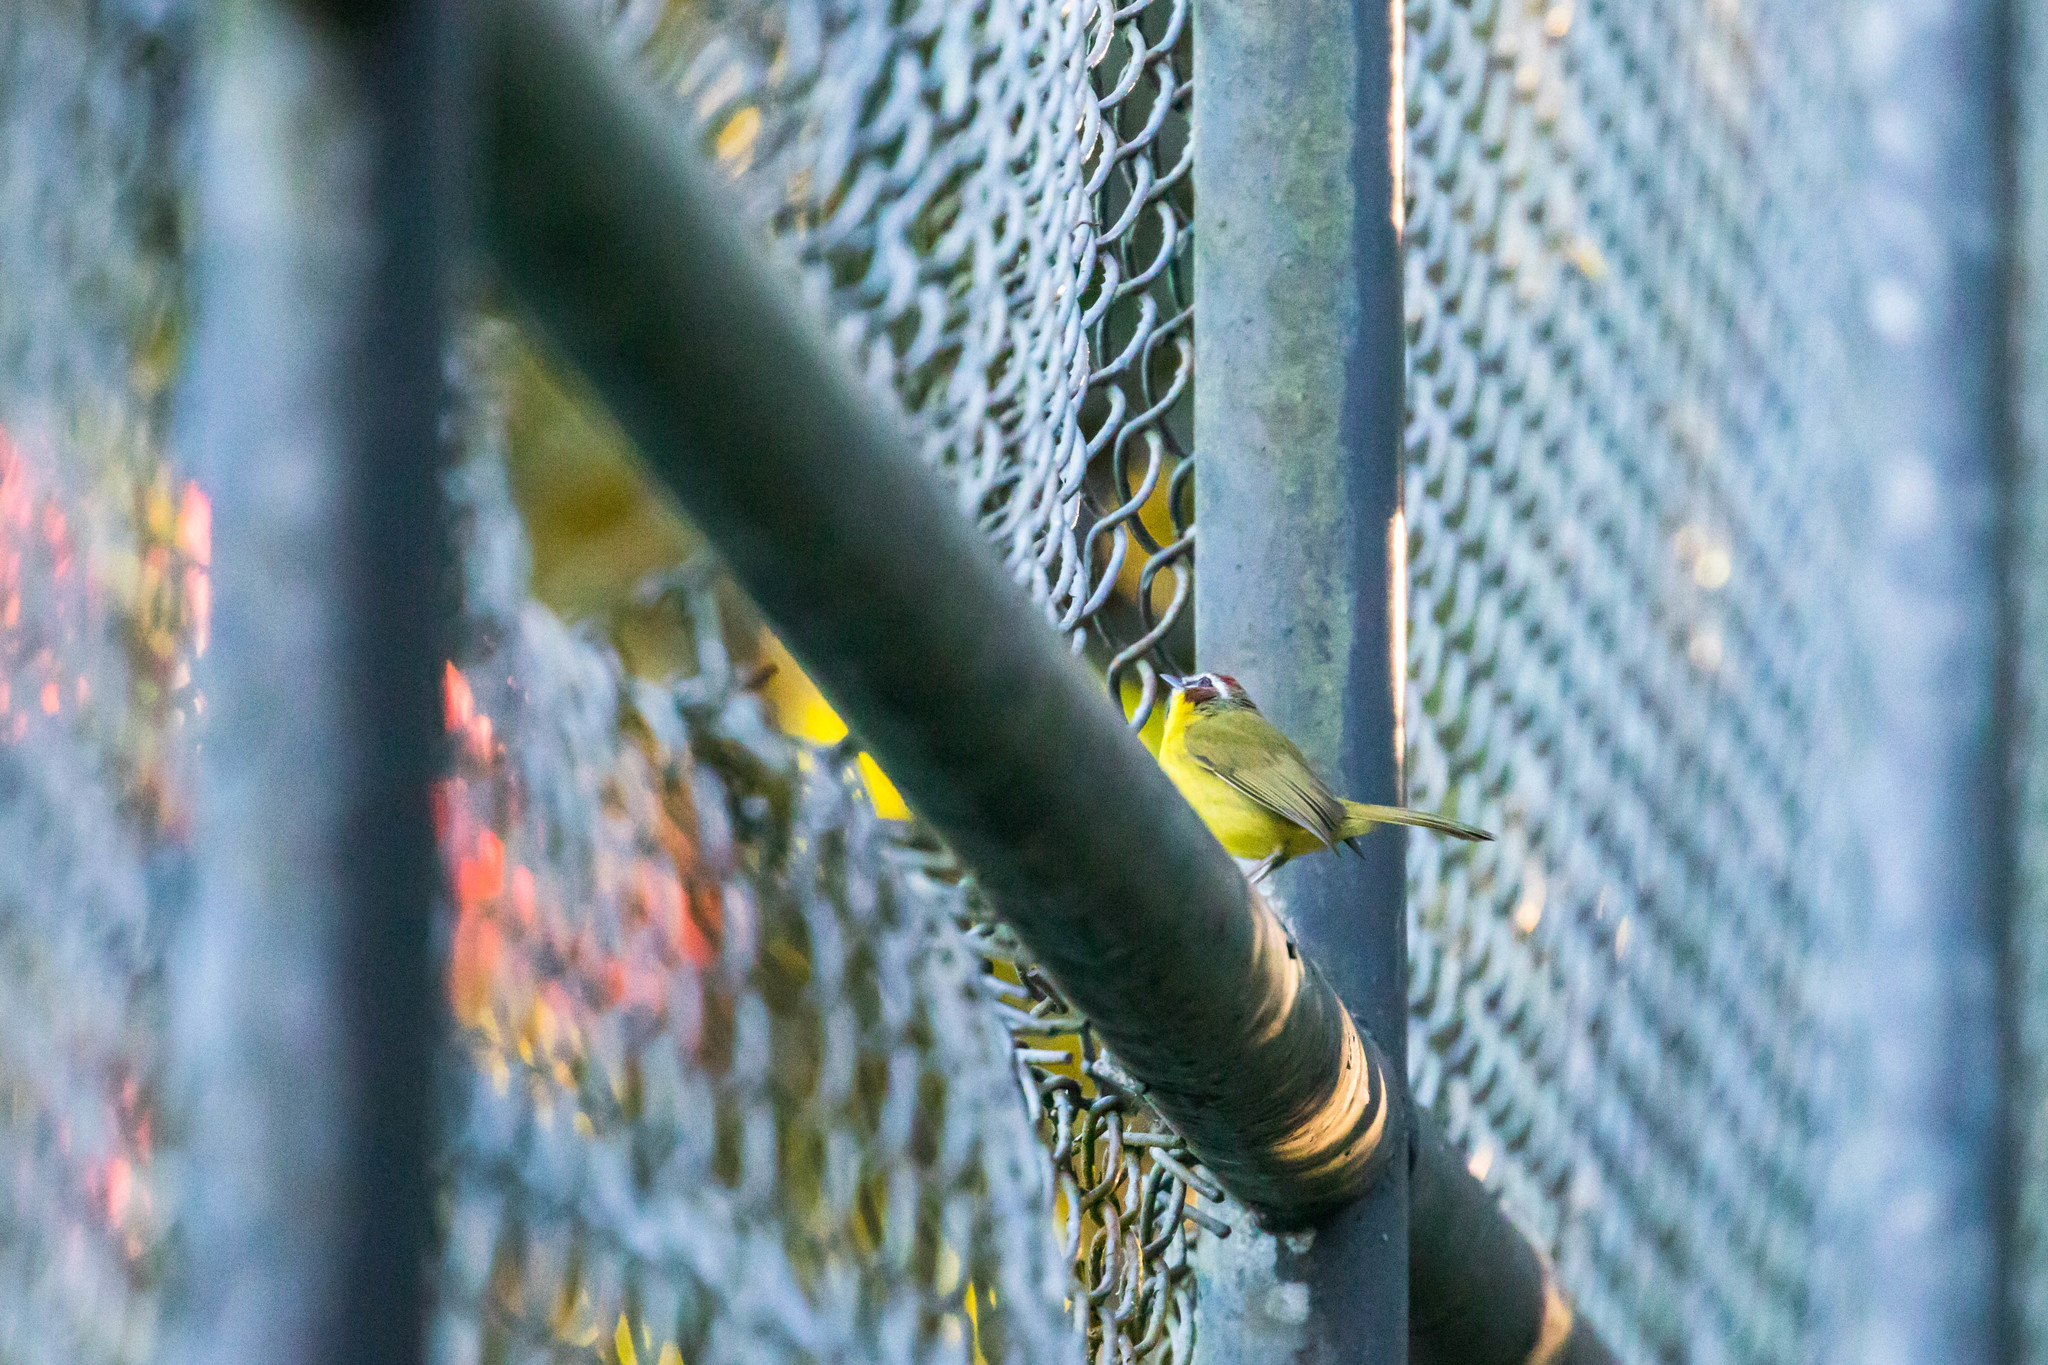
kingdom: Animalia
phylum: Chordata
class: Aves
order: Passeriformes
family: Parulidae
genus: Basileuterus
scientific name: Basileuterus rufifrons
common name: Rufous-capped warbler
